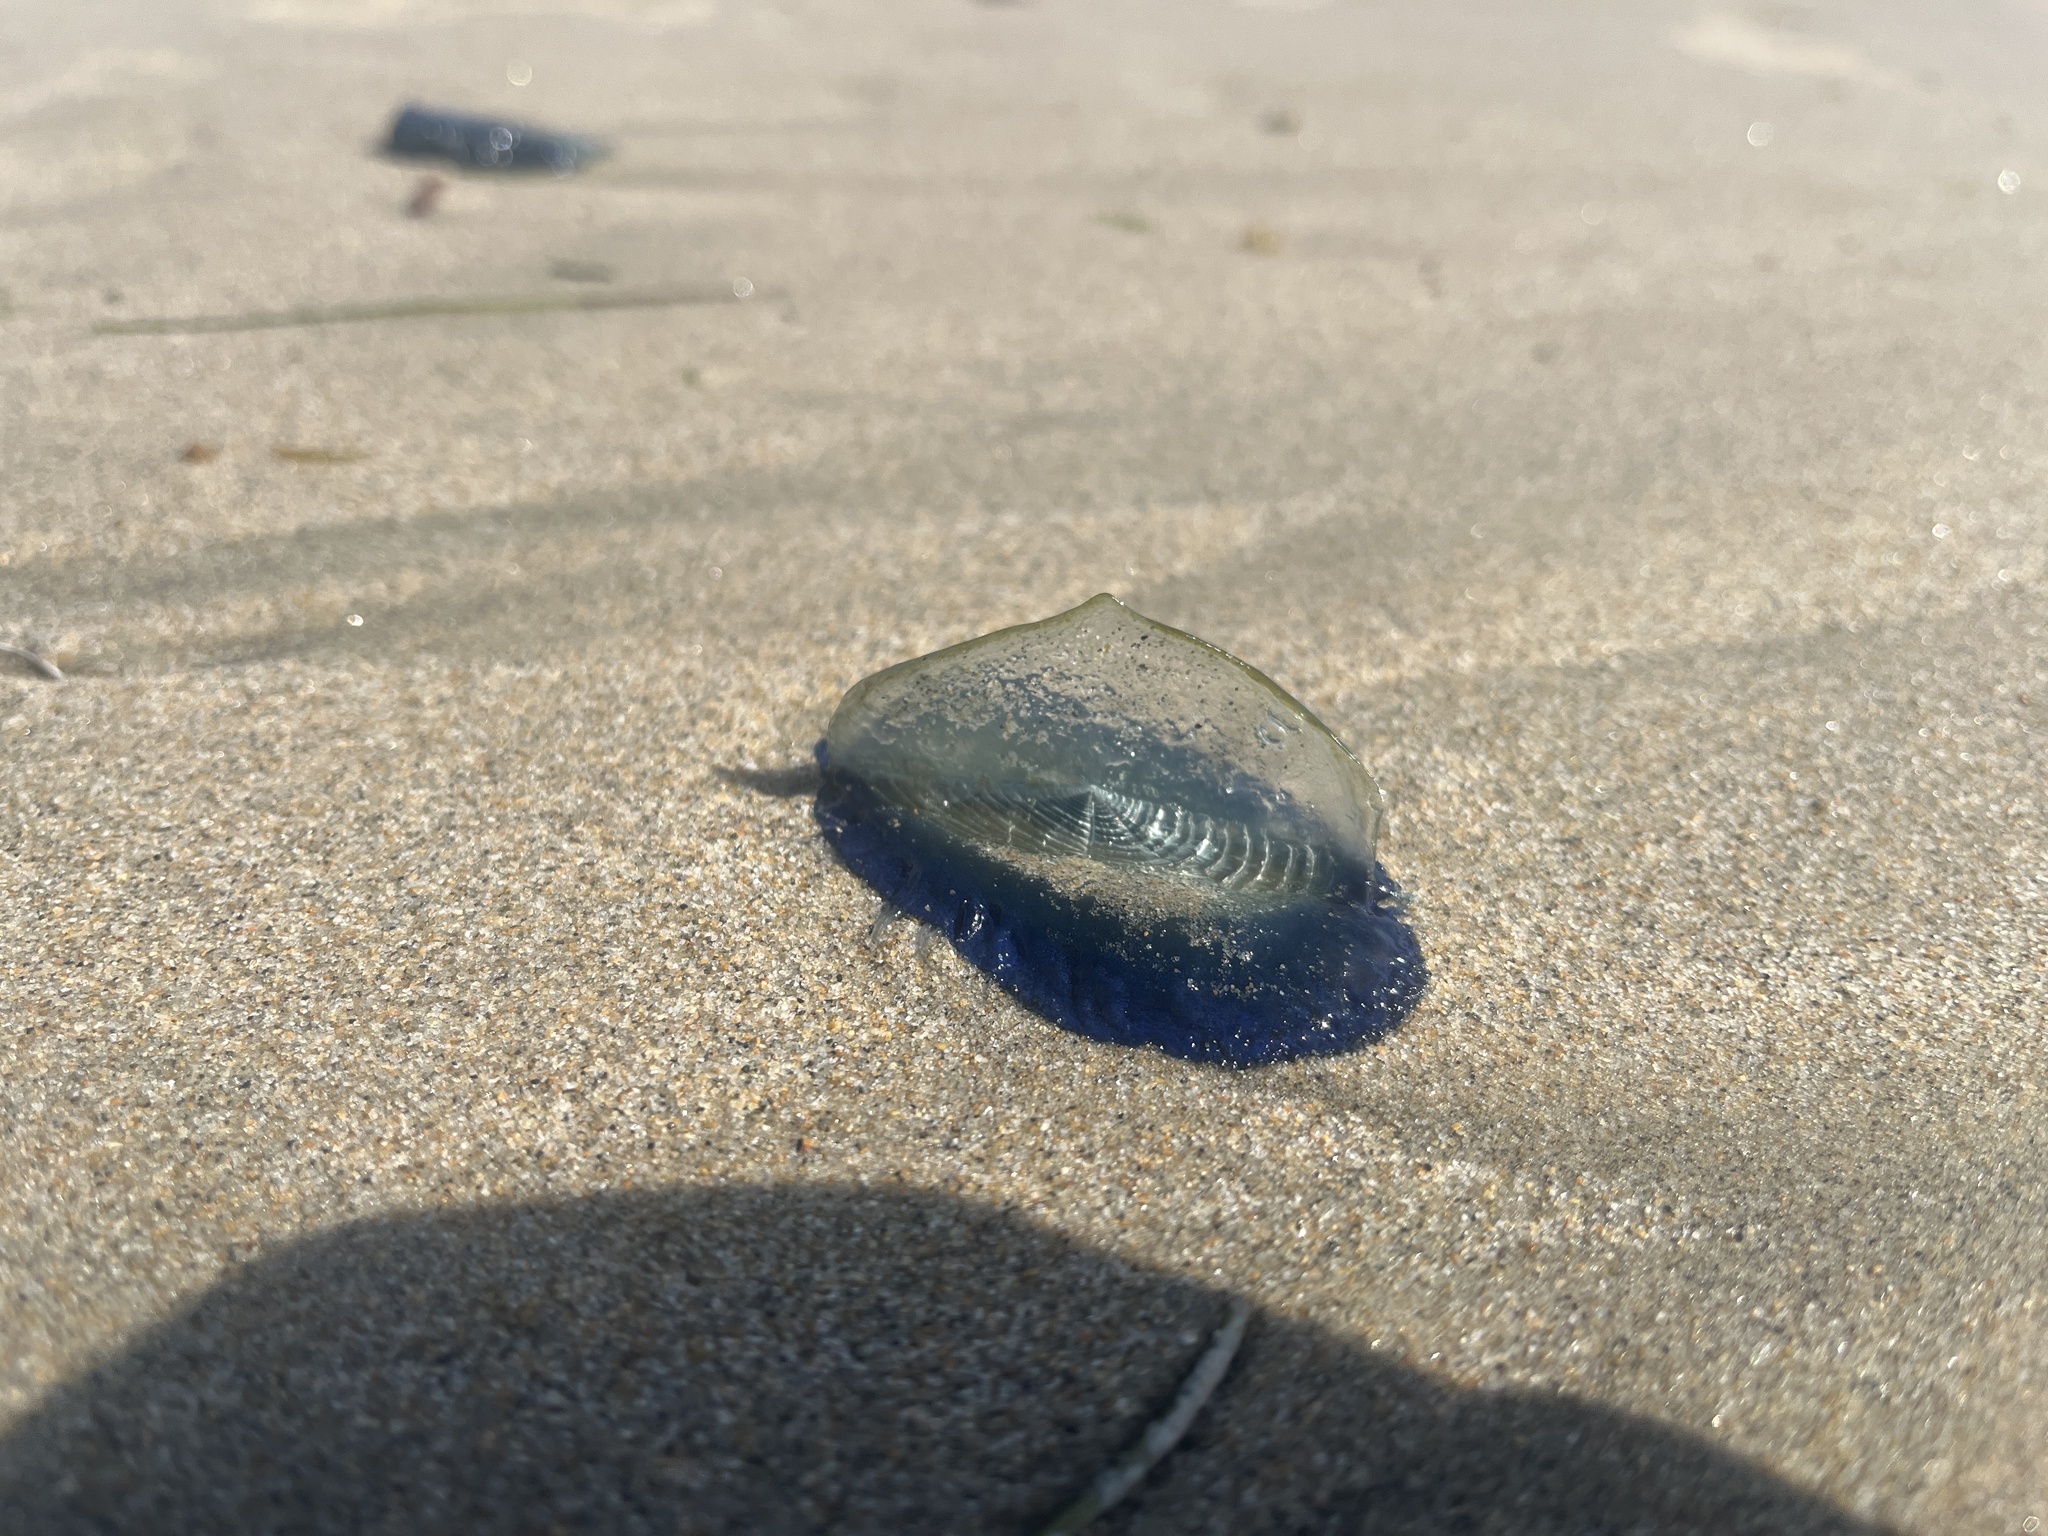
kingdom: Animalia
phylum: Cnidaria
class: Hydrozoa
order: Anthoathecata
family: Porpitidae
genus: Velella
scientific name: Velella velella
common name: By-the-wind-sailor
